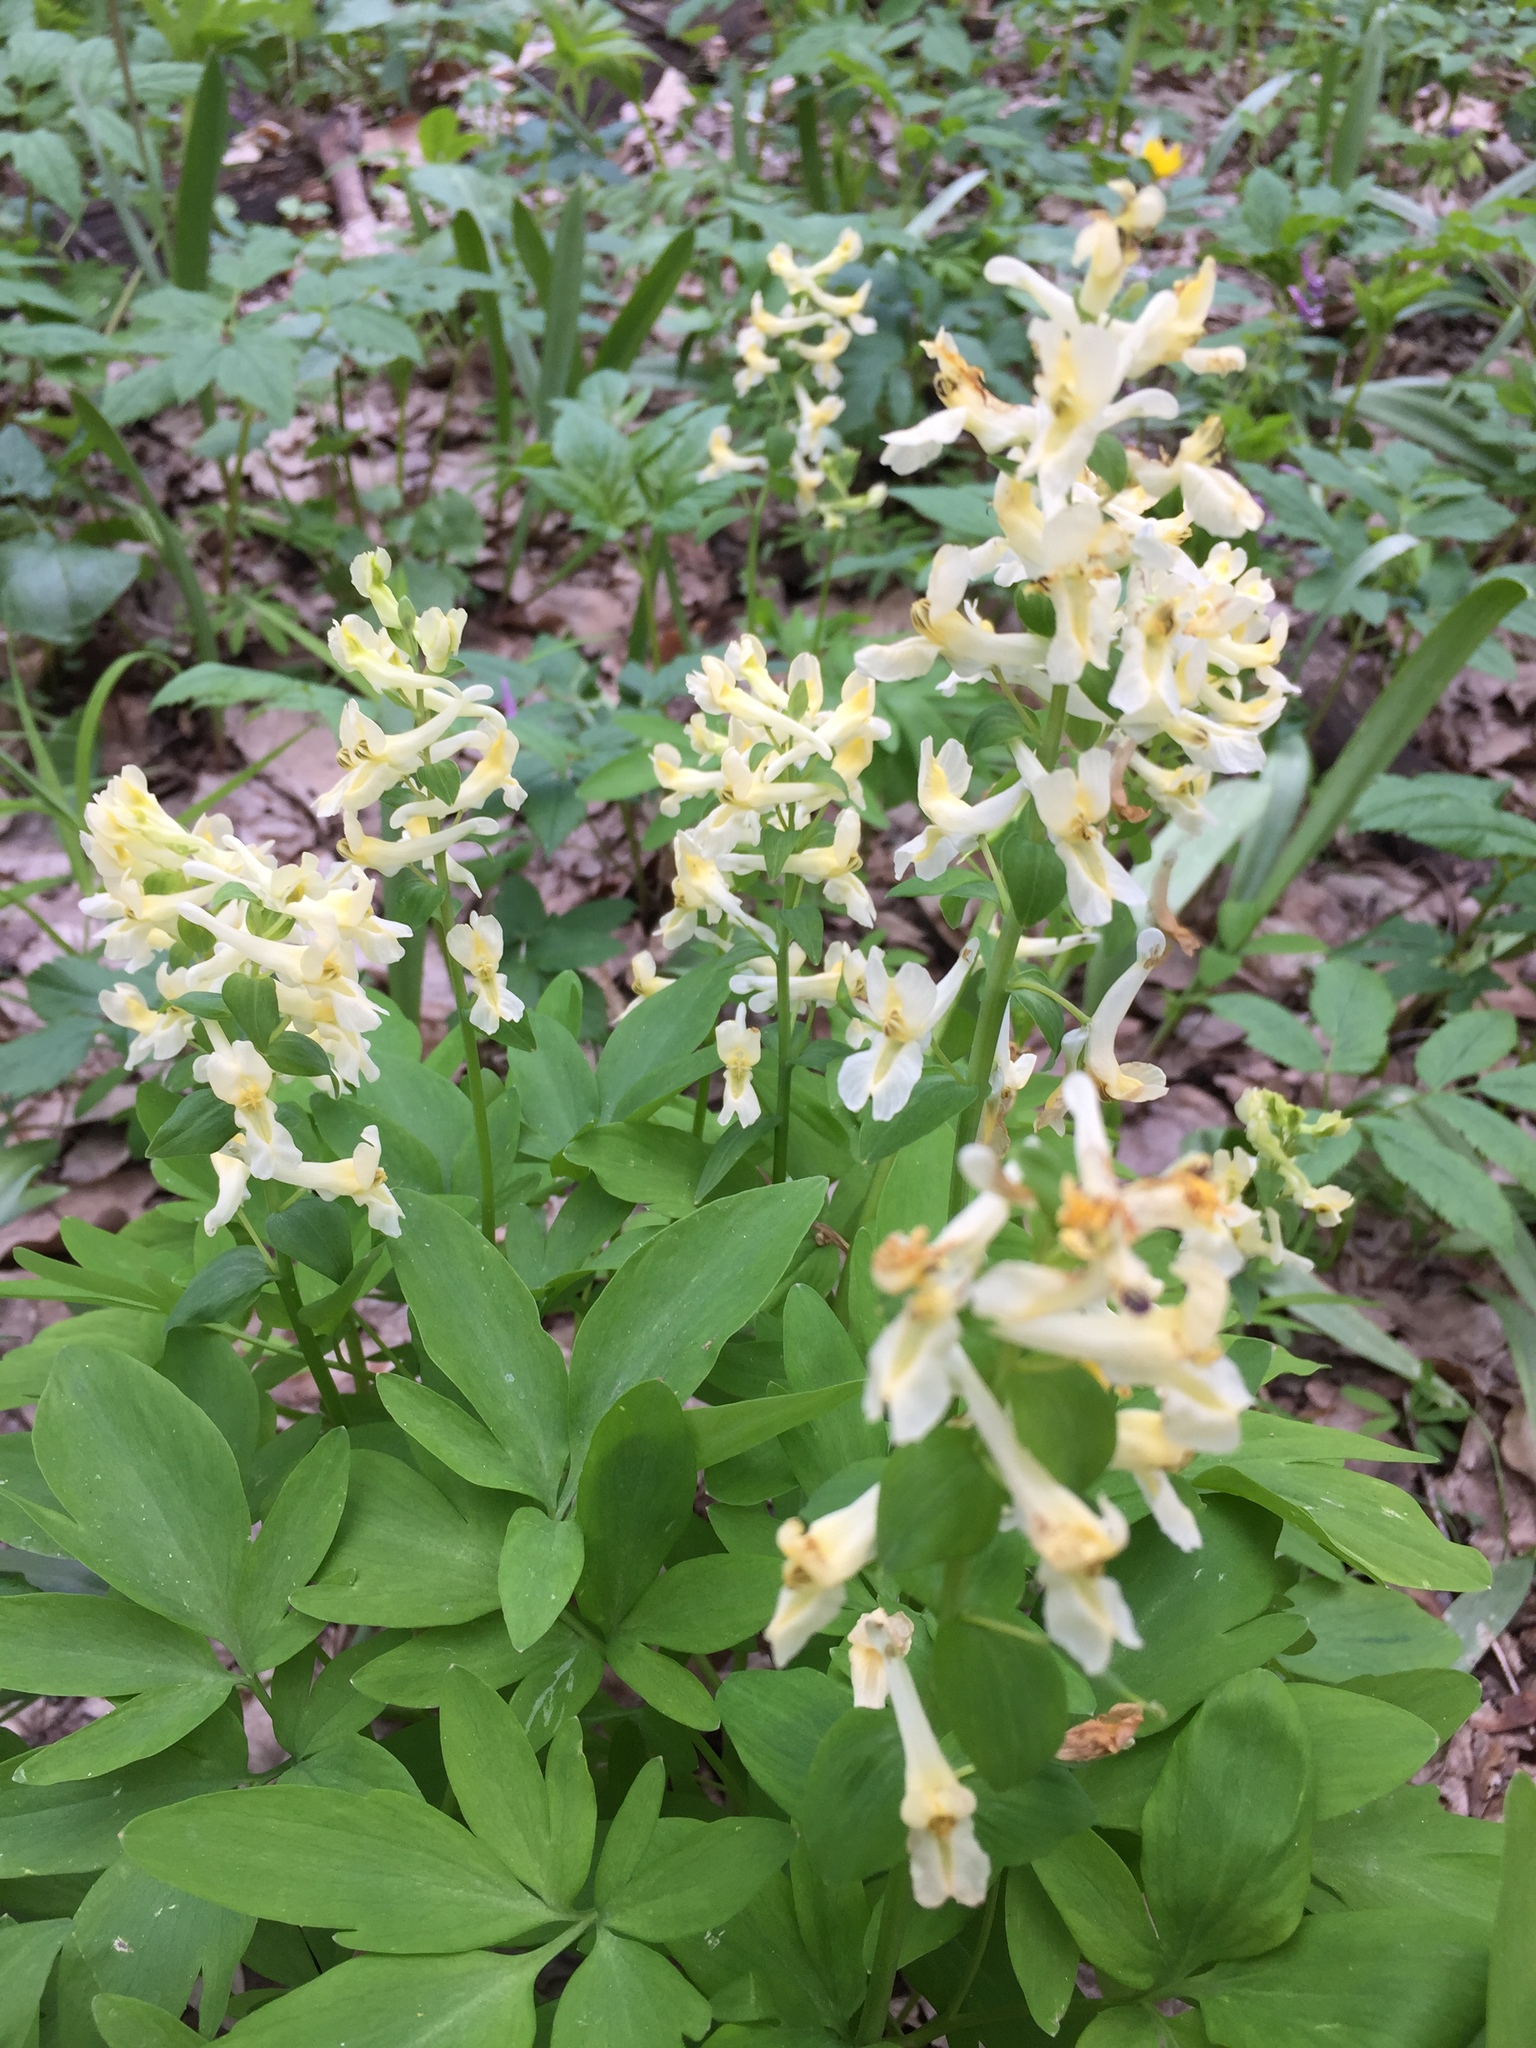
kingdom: Plantae
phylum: Tracheophyta
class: Magnoliopsida
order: Ranunculales
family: Papaveraceae
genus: Corydalis
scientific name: Corydalis cava
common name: Hollowroot
